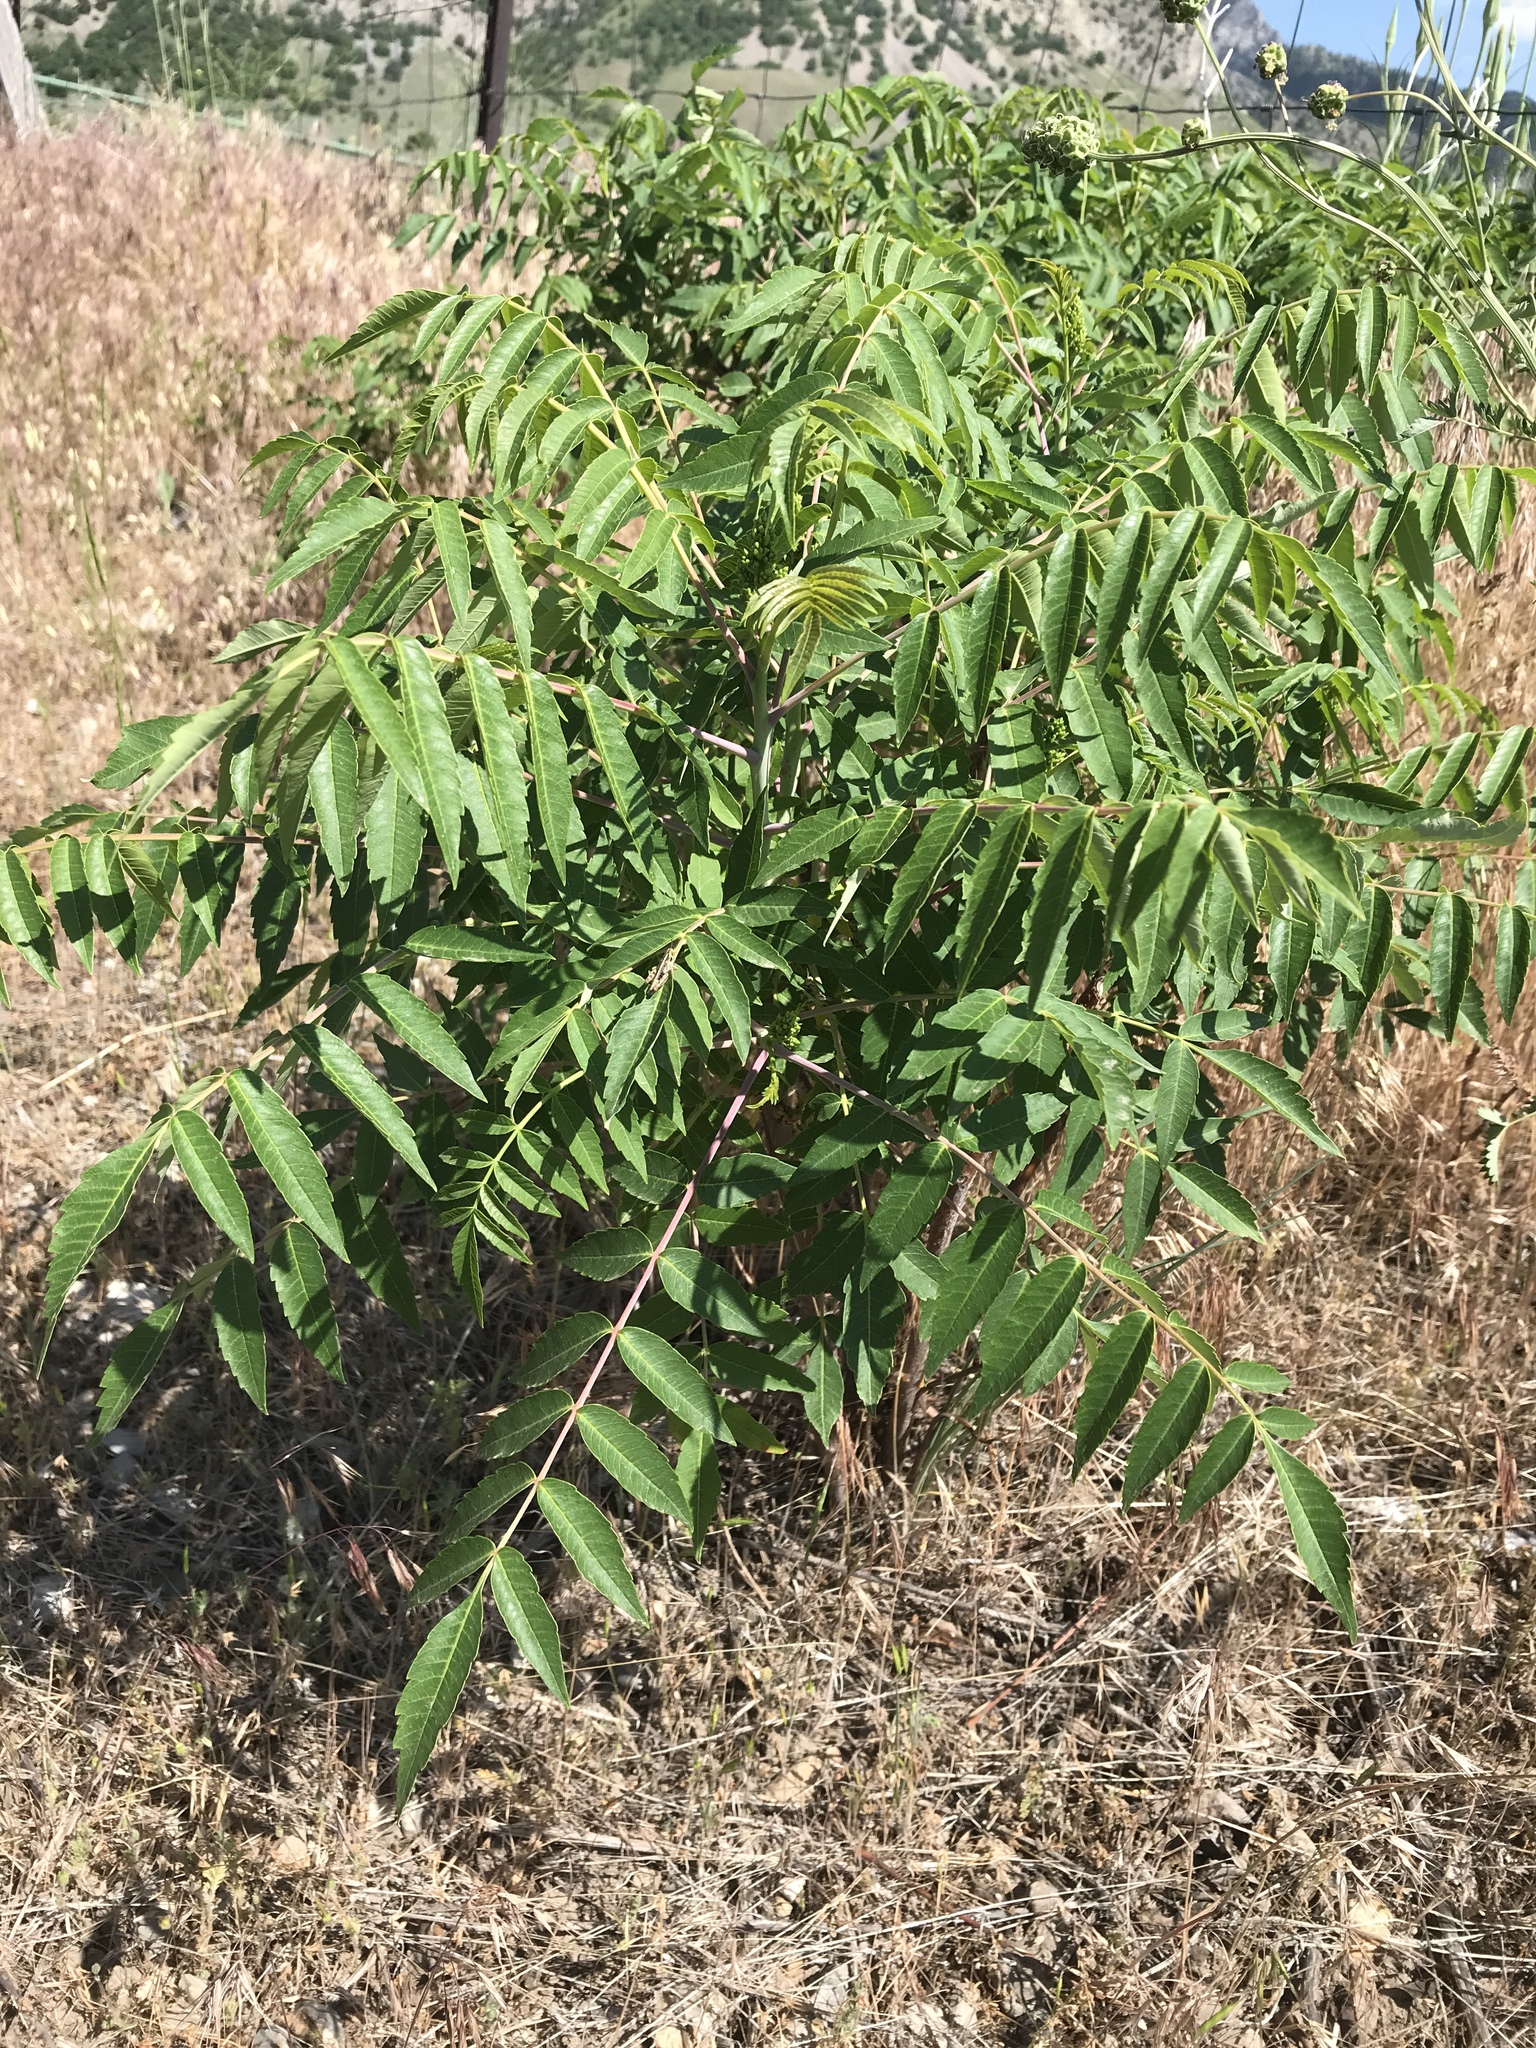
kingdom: Plantae
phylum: Tracheophyta
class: Magnoliopsida
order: Sapindales
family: Anacardiaceae
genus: Rhus
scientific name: Rhus glabra
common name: Scarlet sumac
